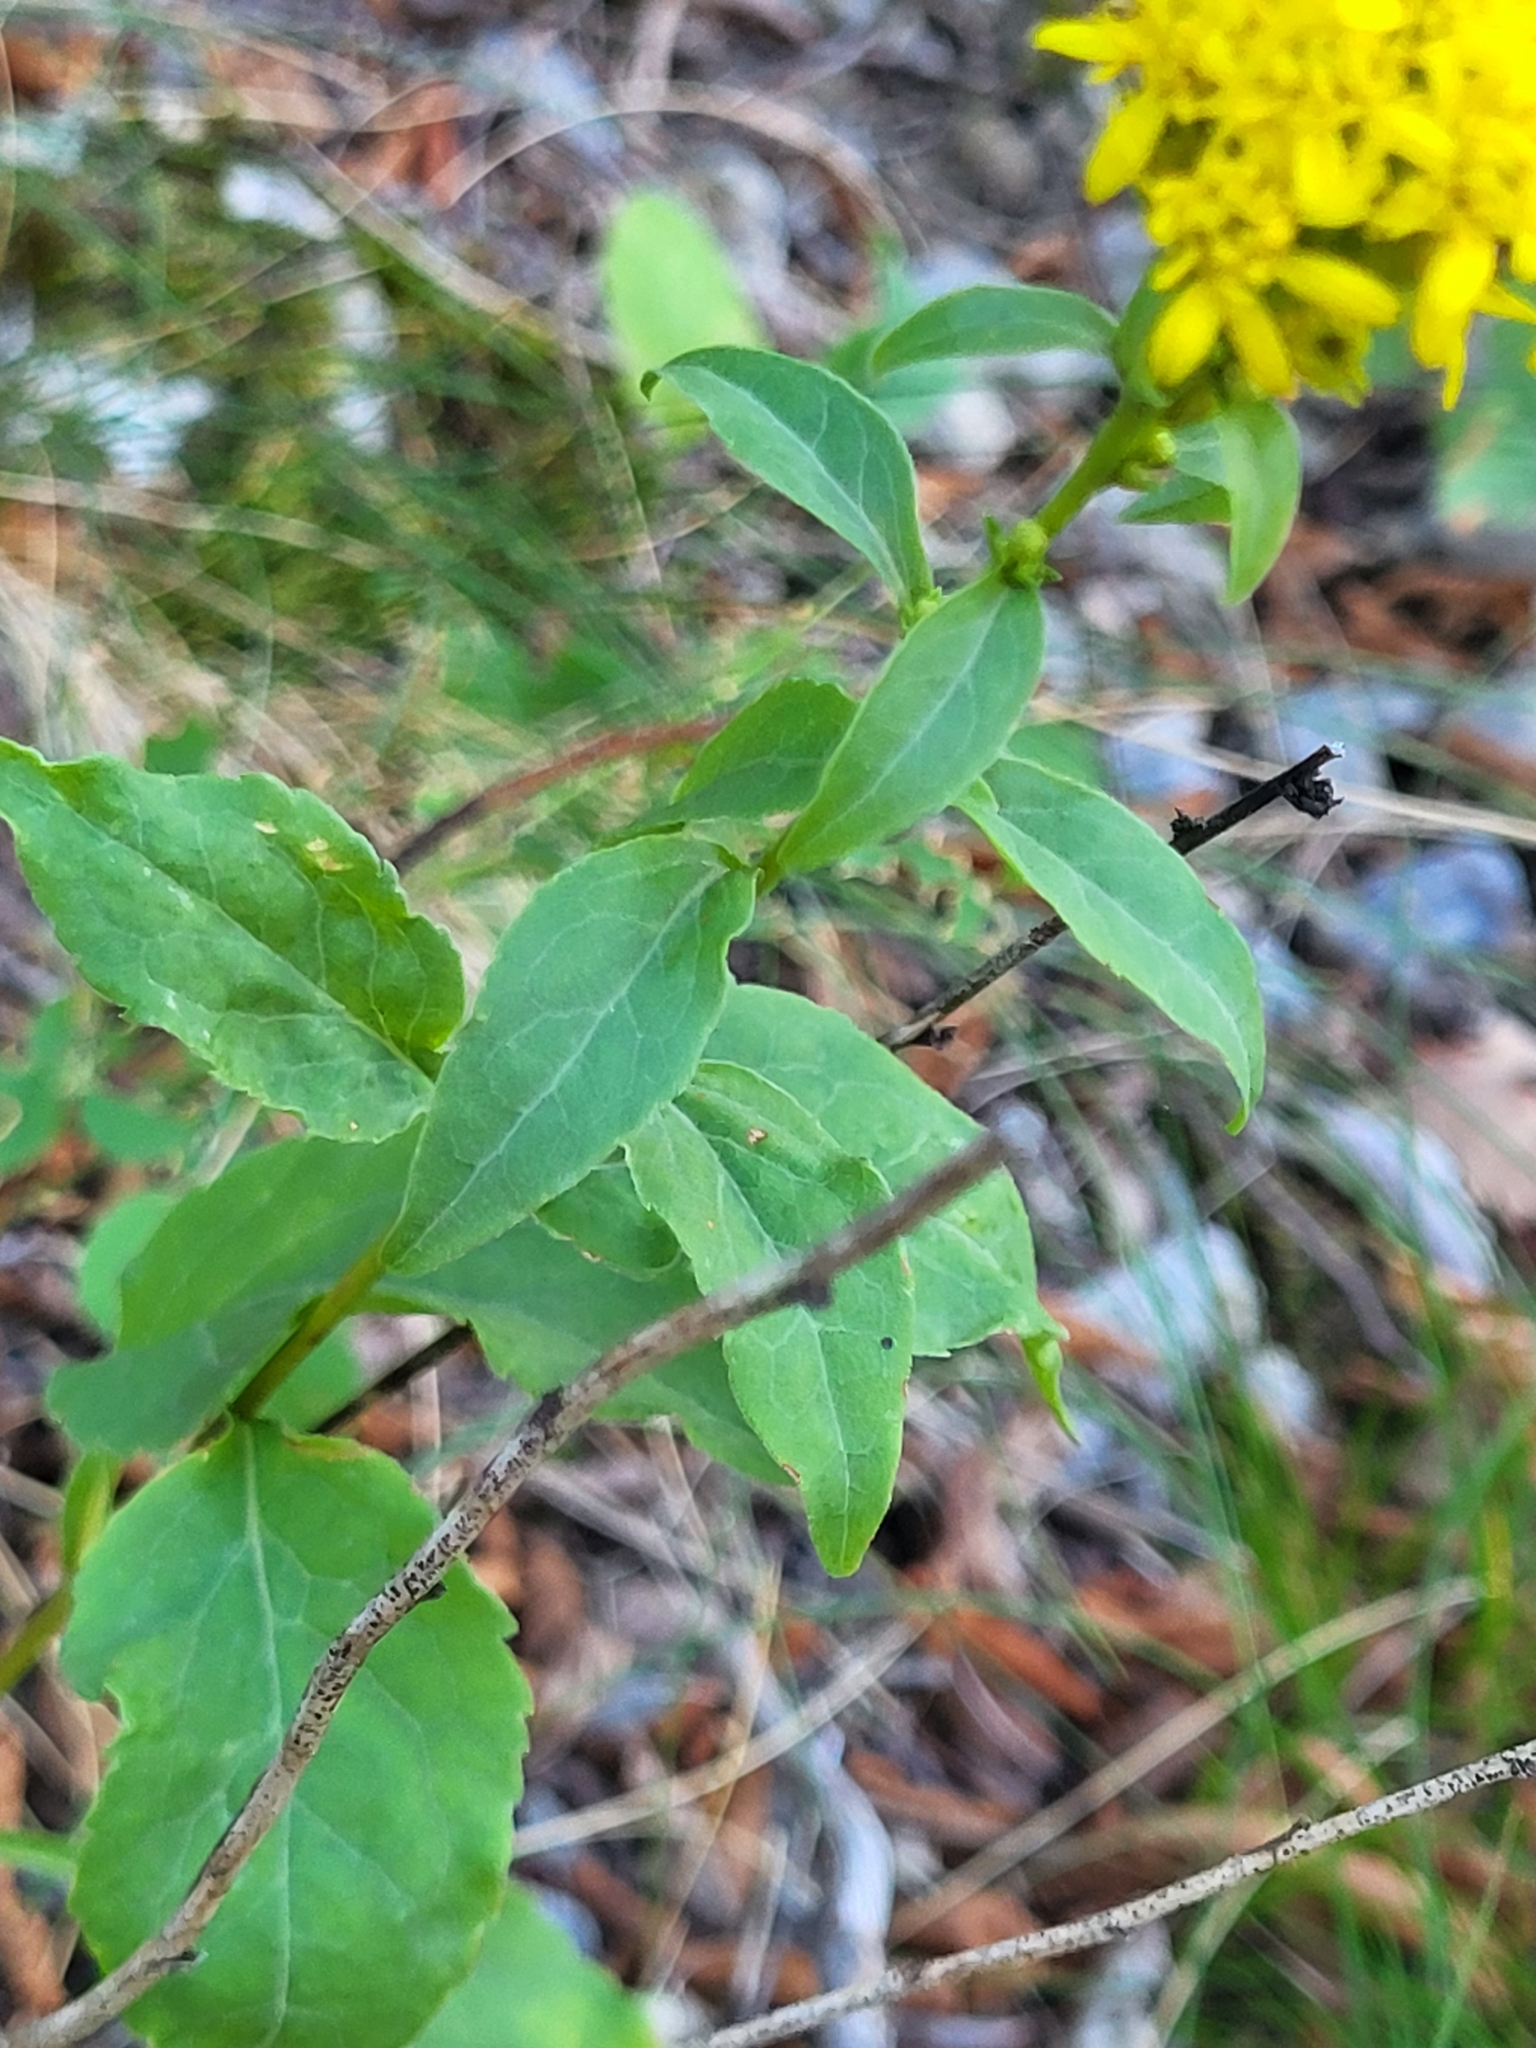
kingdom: Plantae
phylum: Tracheophyta
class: Magnoliopsida
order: Asterales
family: Asteraceae
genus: Solidago
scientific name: Solidago virgaurea
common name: Goldenrod
